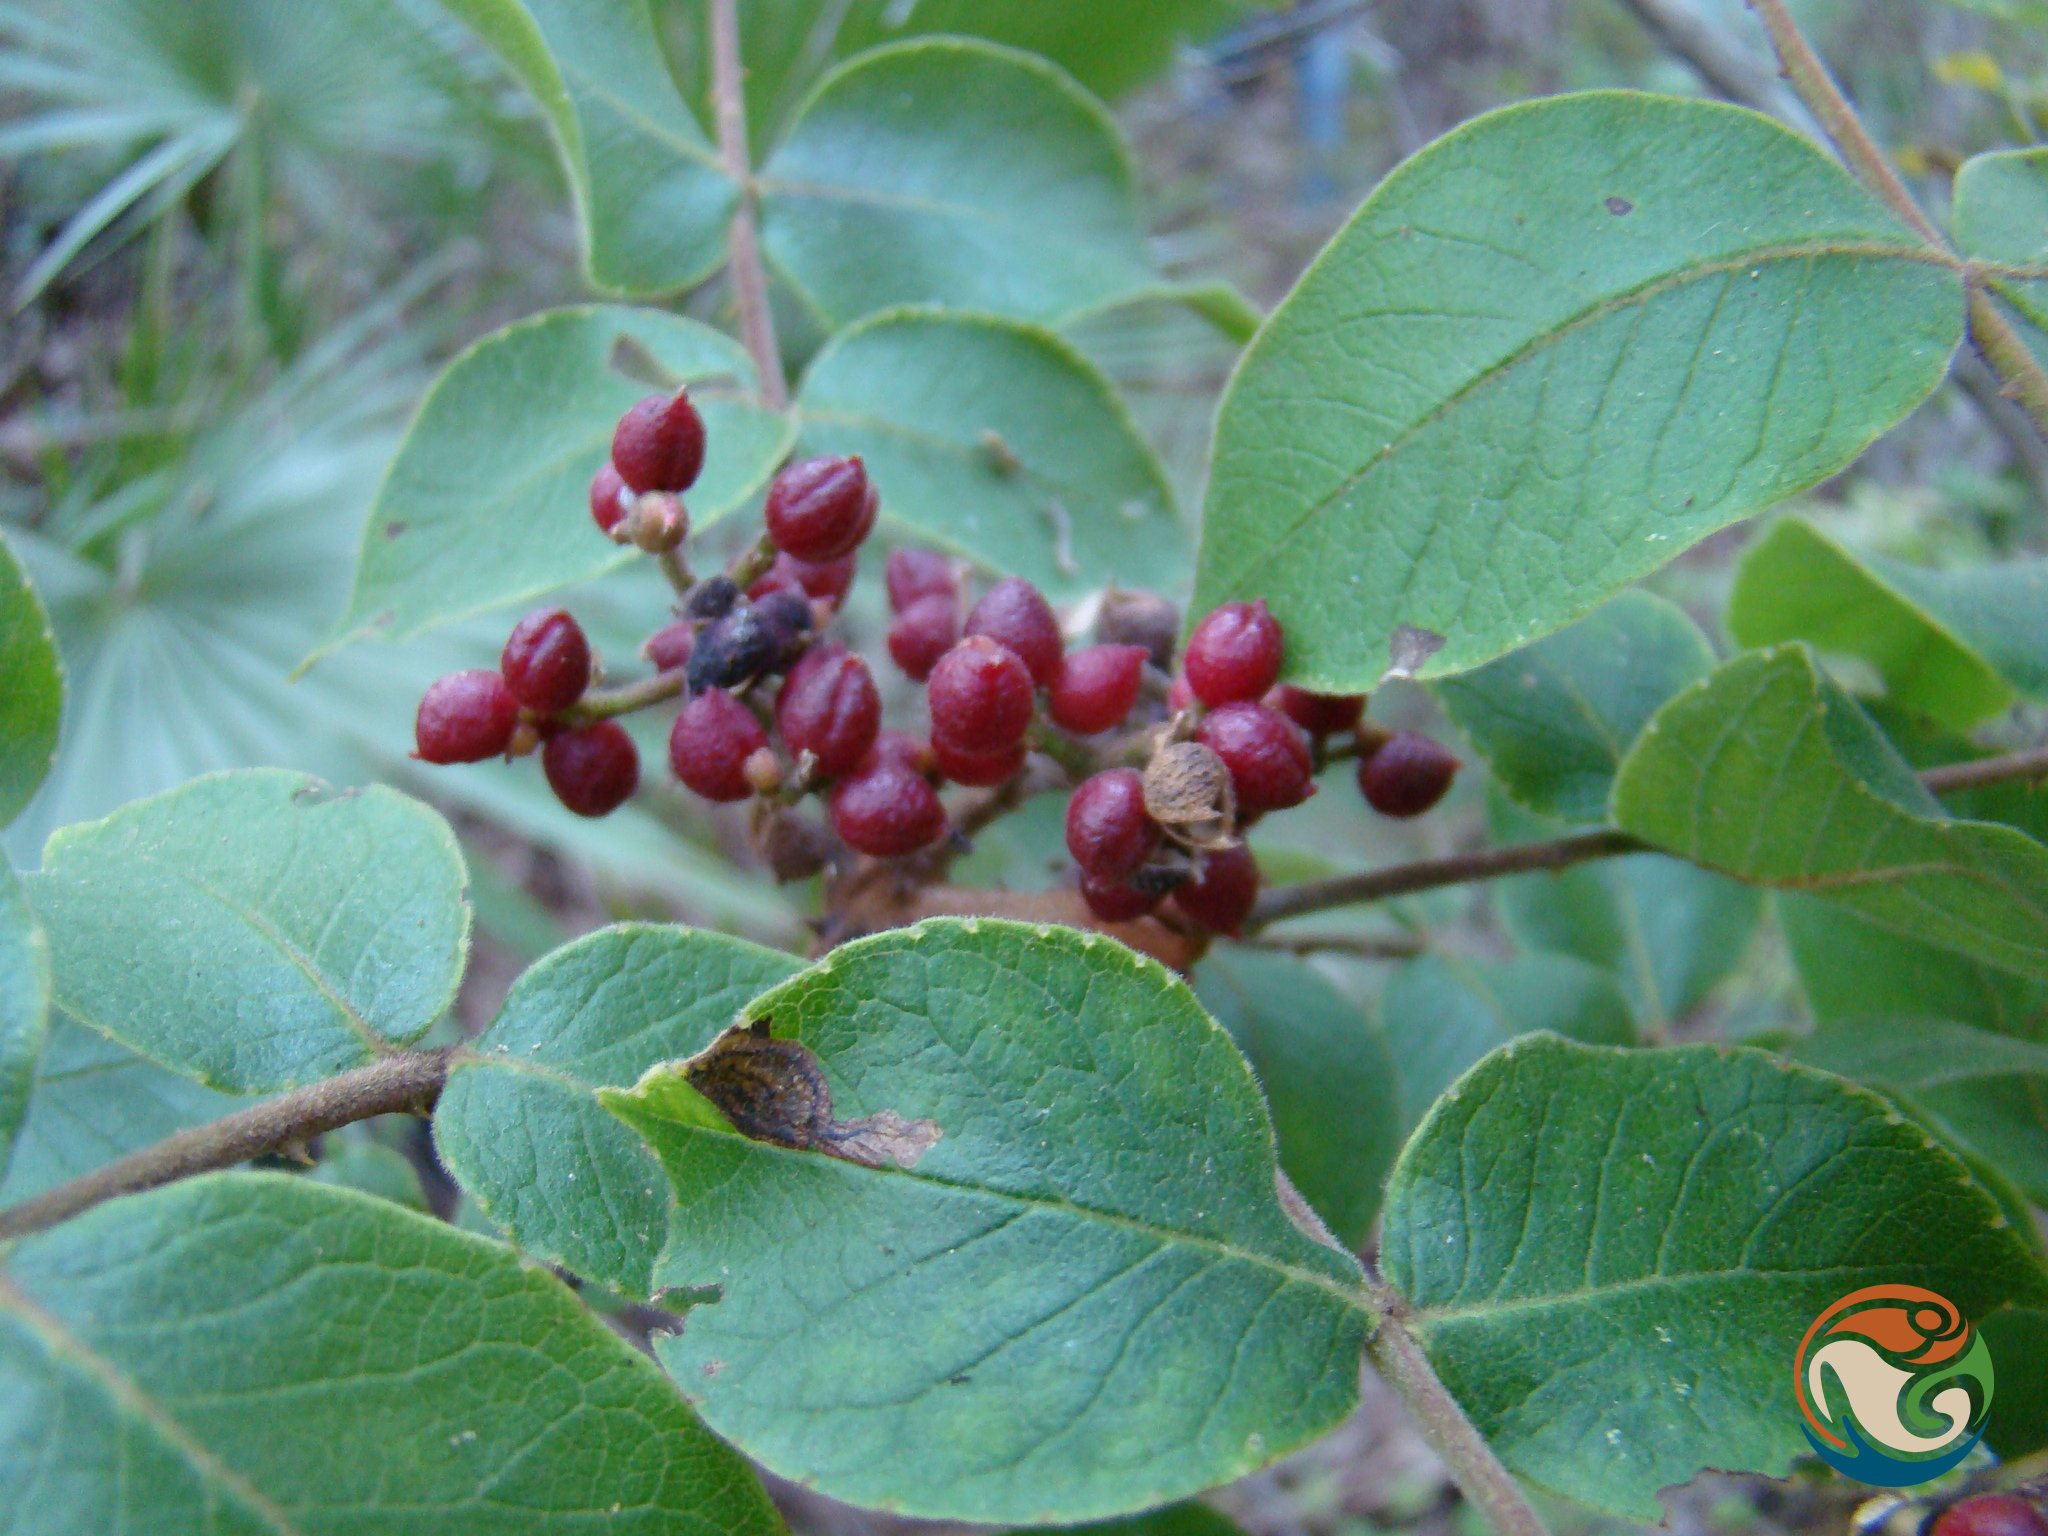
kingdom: Plantae
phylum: Tracheophyta
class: Magnoliopsida
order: Sapindales
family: Rutaceae
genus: Zanthoxylum
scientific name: Zanthoxylum melanostictum
